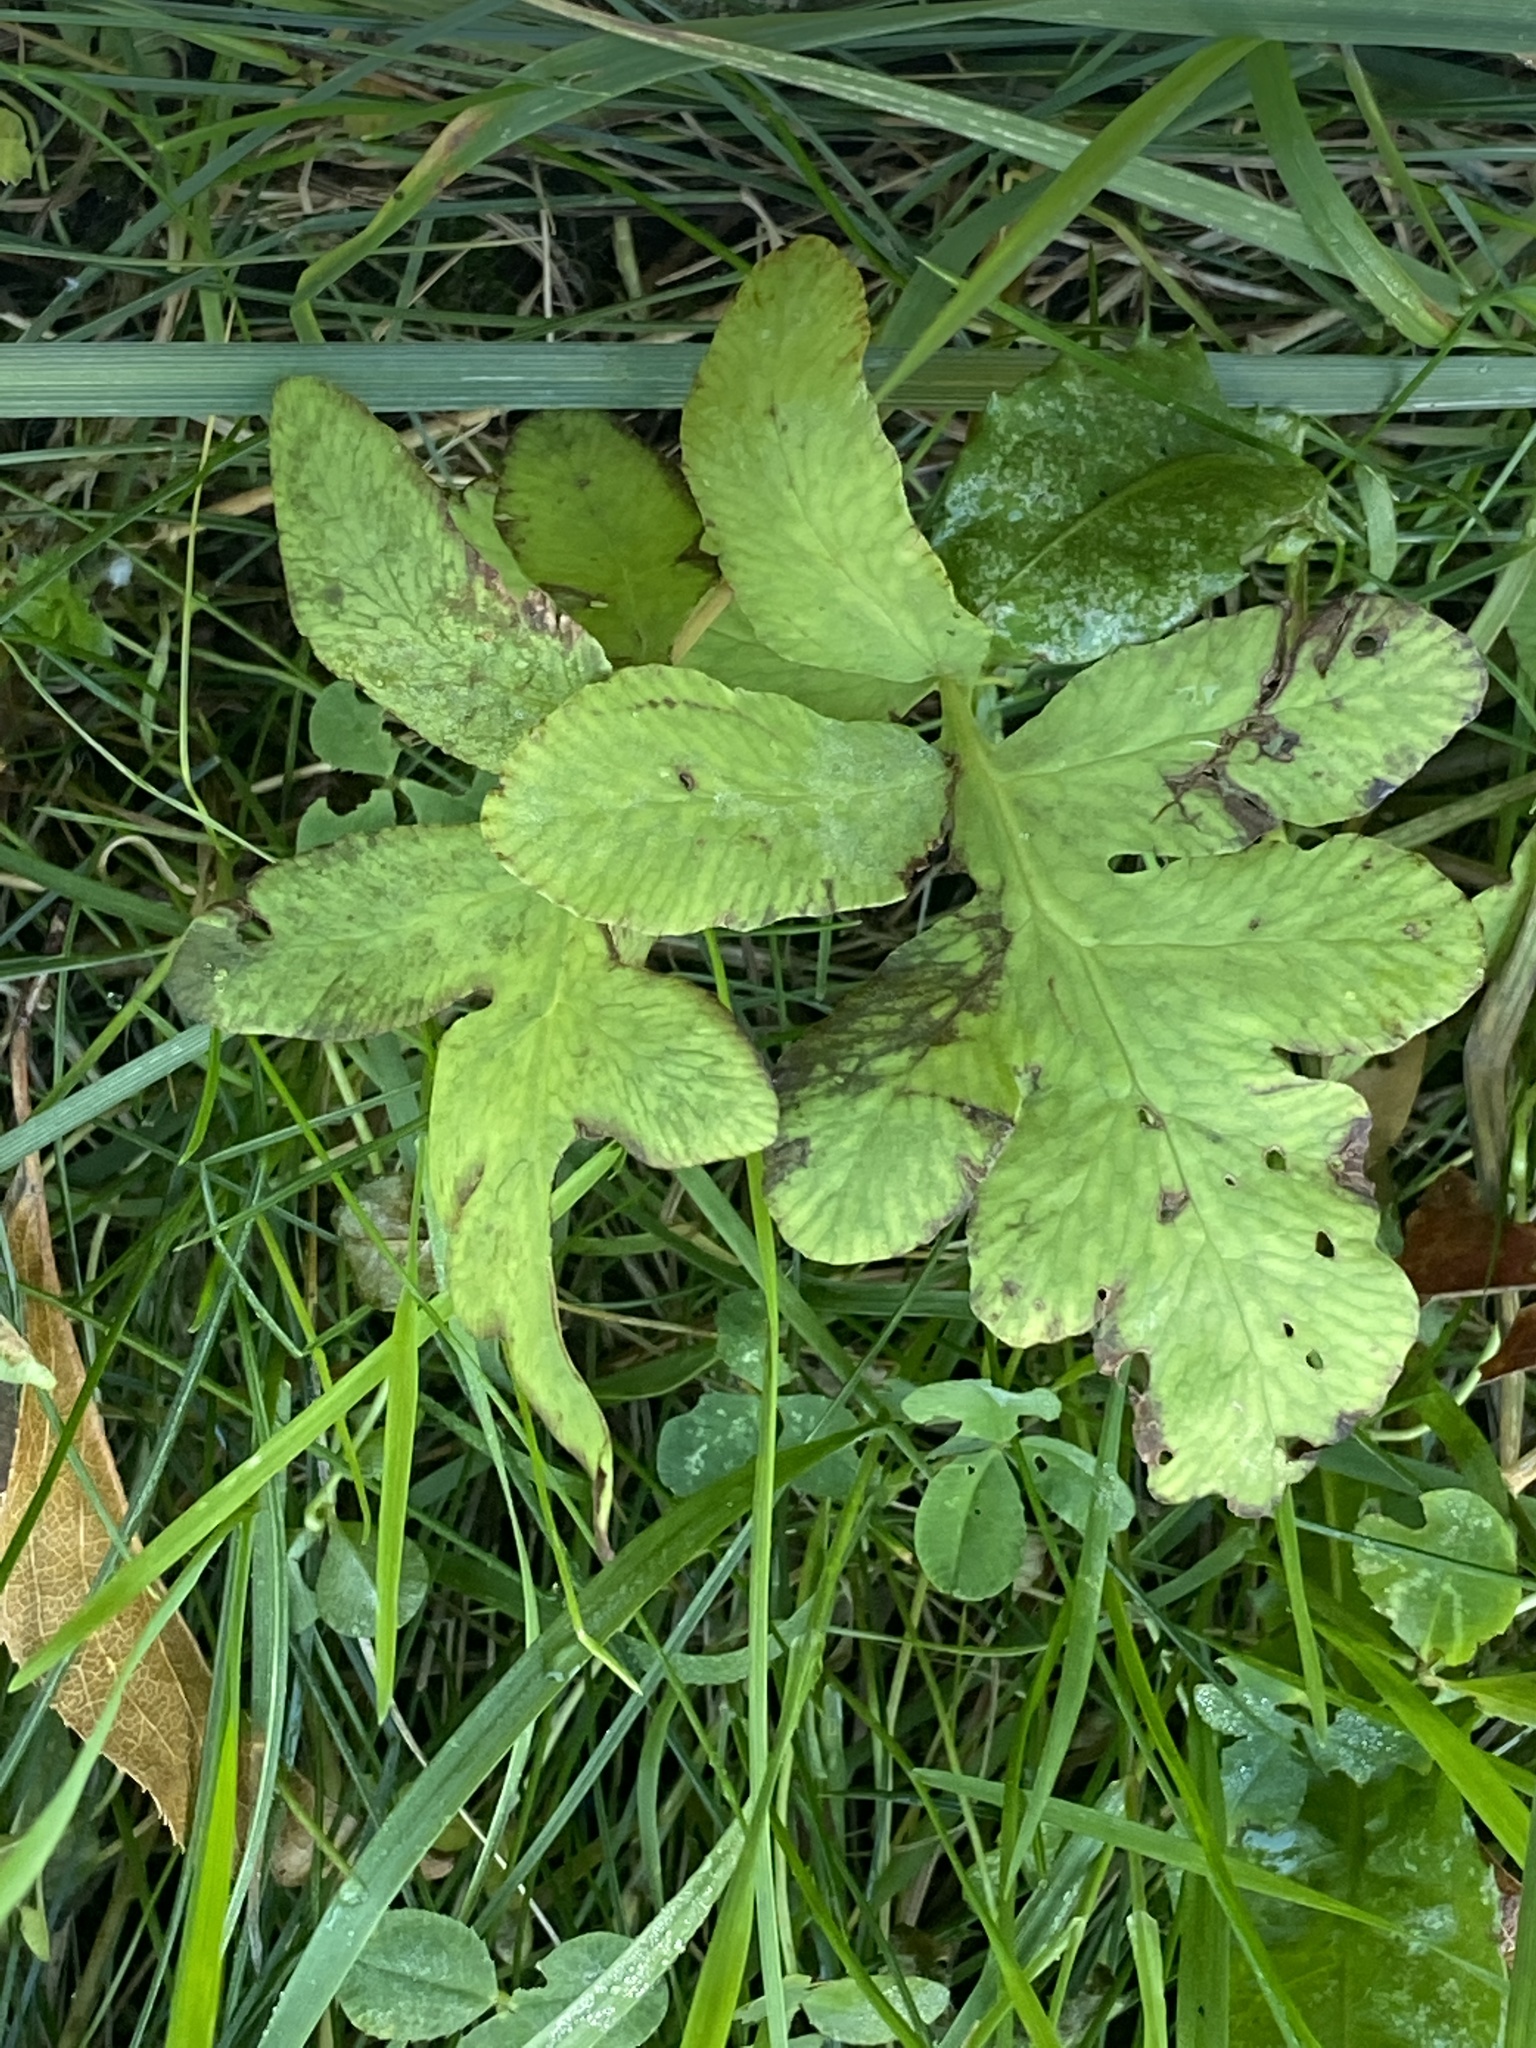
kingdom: Plantae
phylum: Tracheophyta
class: Polypodiopsida
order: Polypodiales
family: Onocleaceae
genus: Onoclea
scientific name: Onoclea sensibilis
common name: Sensitive fern
